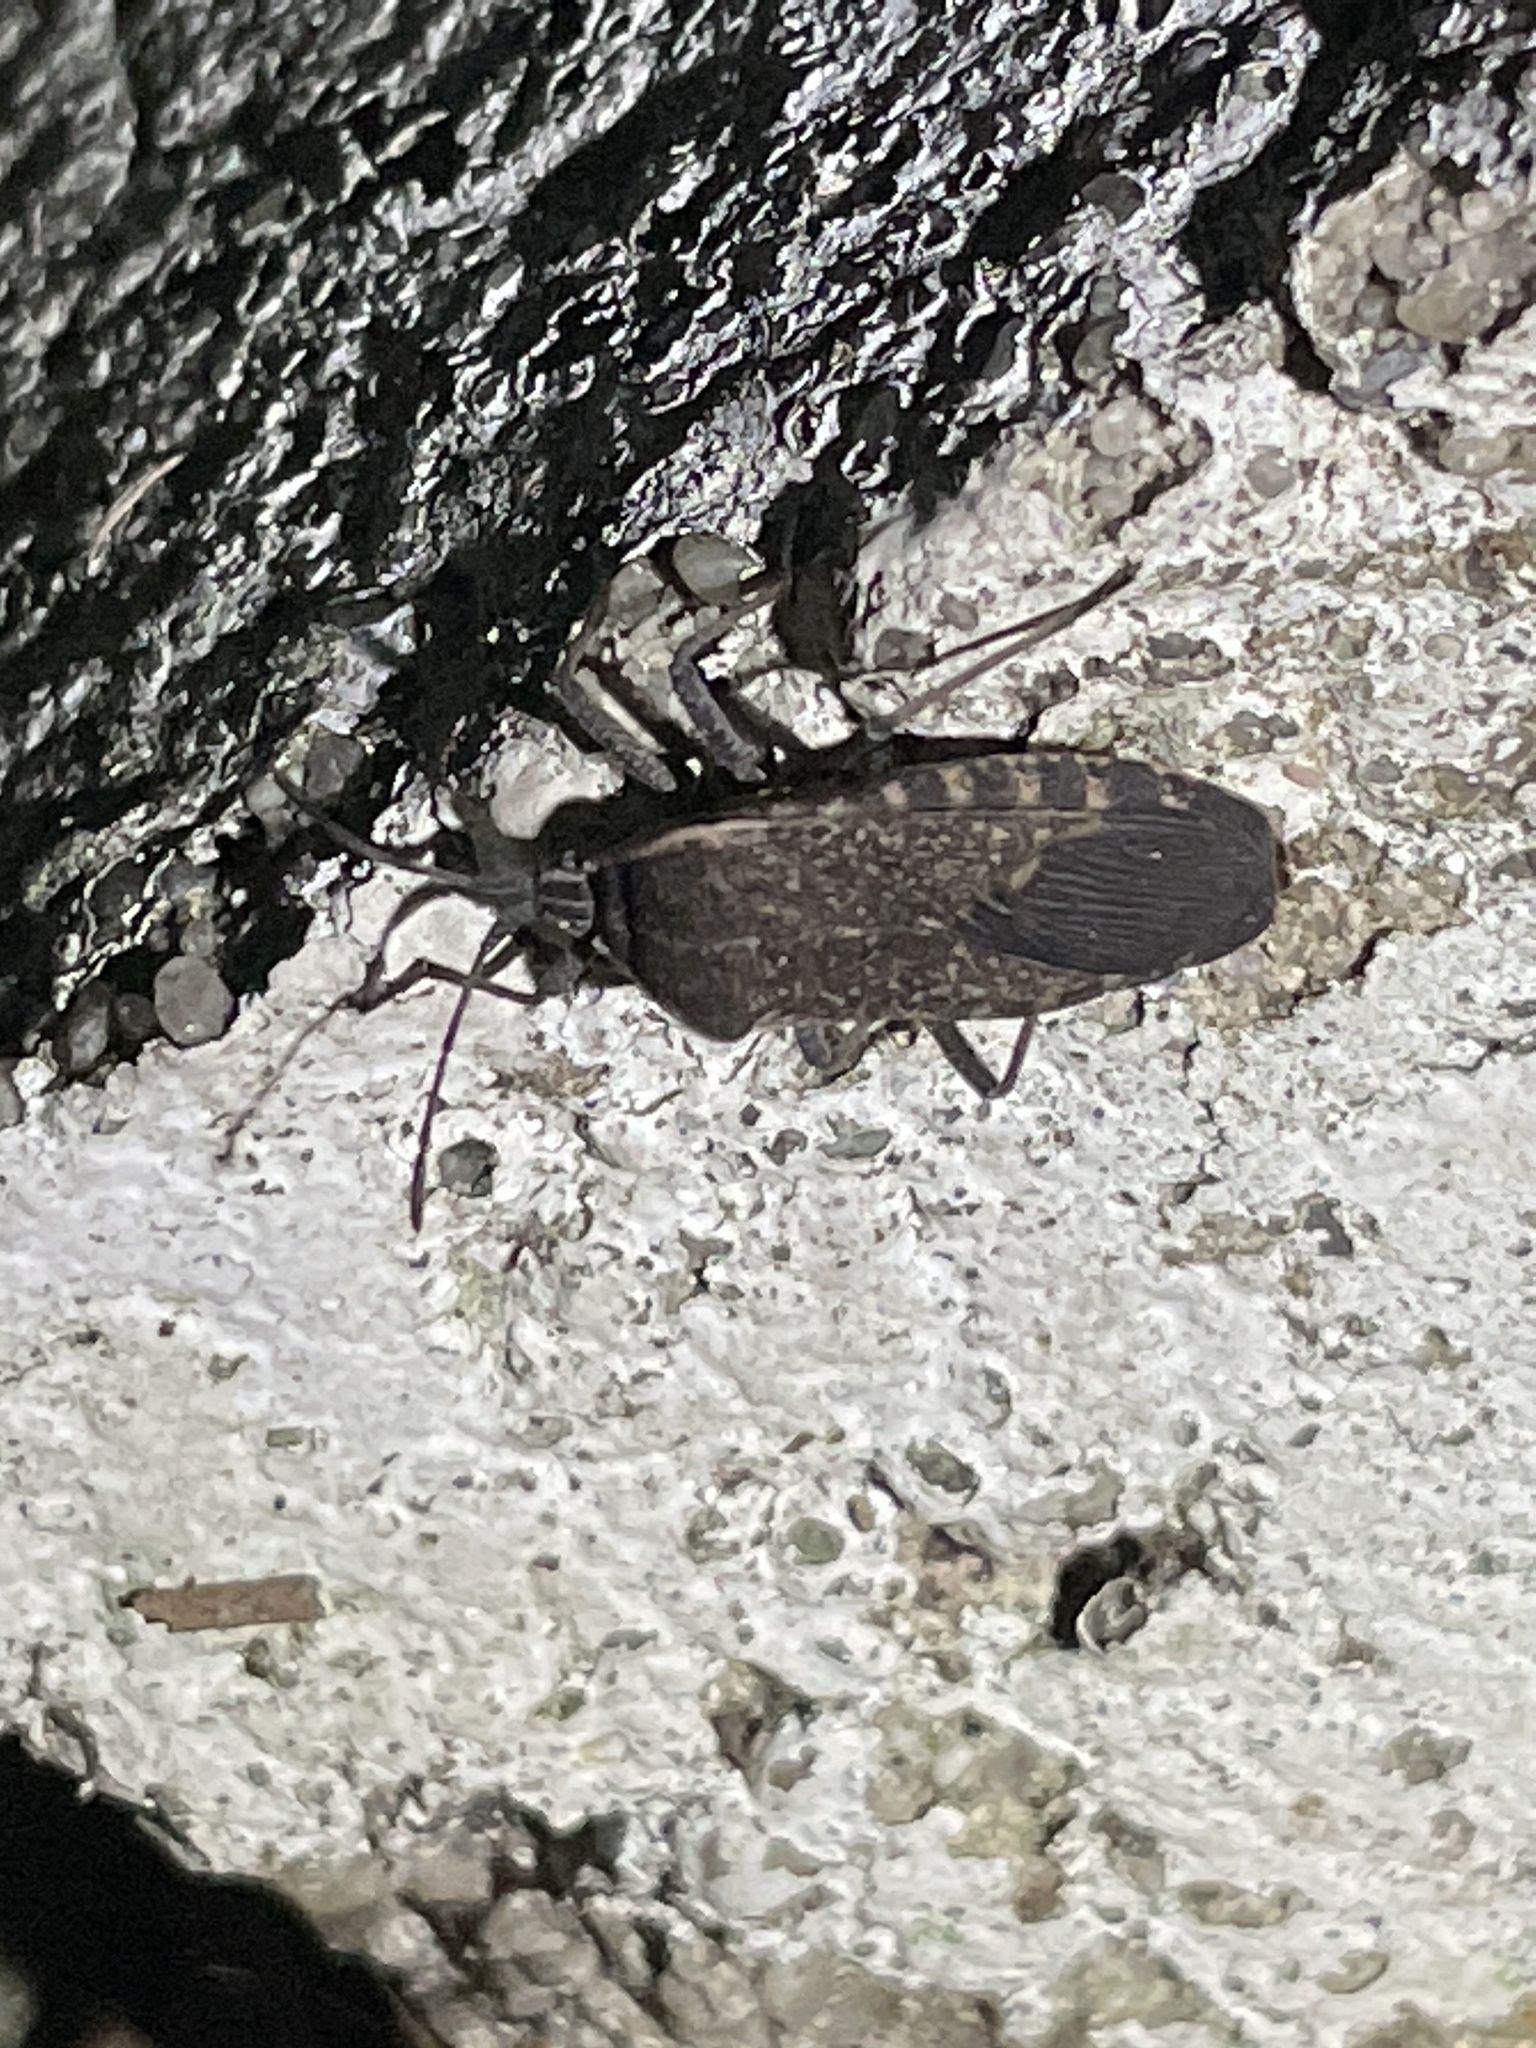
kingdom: Animalia
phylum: Arthropoda
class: Insecta
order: Hemiptera
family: Coreidae
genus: Anasa
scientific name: Anasa tristis
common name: Squash bug
